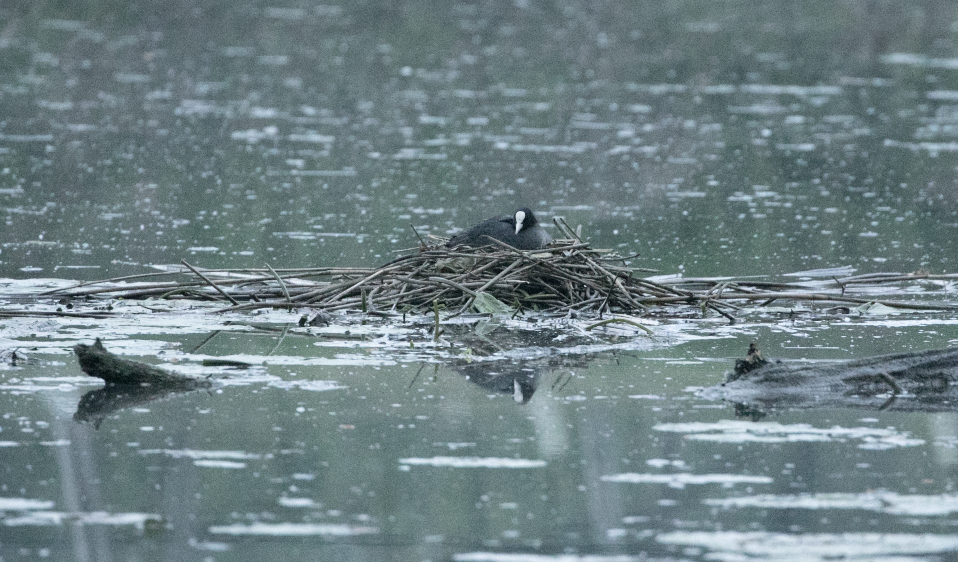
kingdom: Animalia
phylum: Chordata
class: Aves
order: Gruiformes
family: Rallidae
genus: Fulica
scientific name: Fulica atra
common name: Eurasian coot
